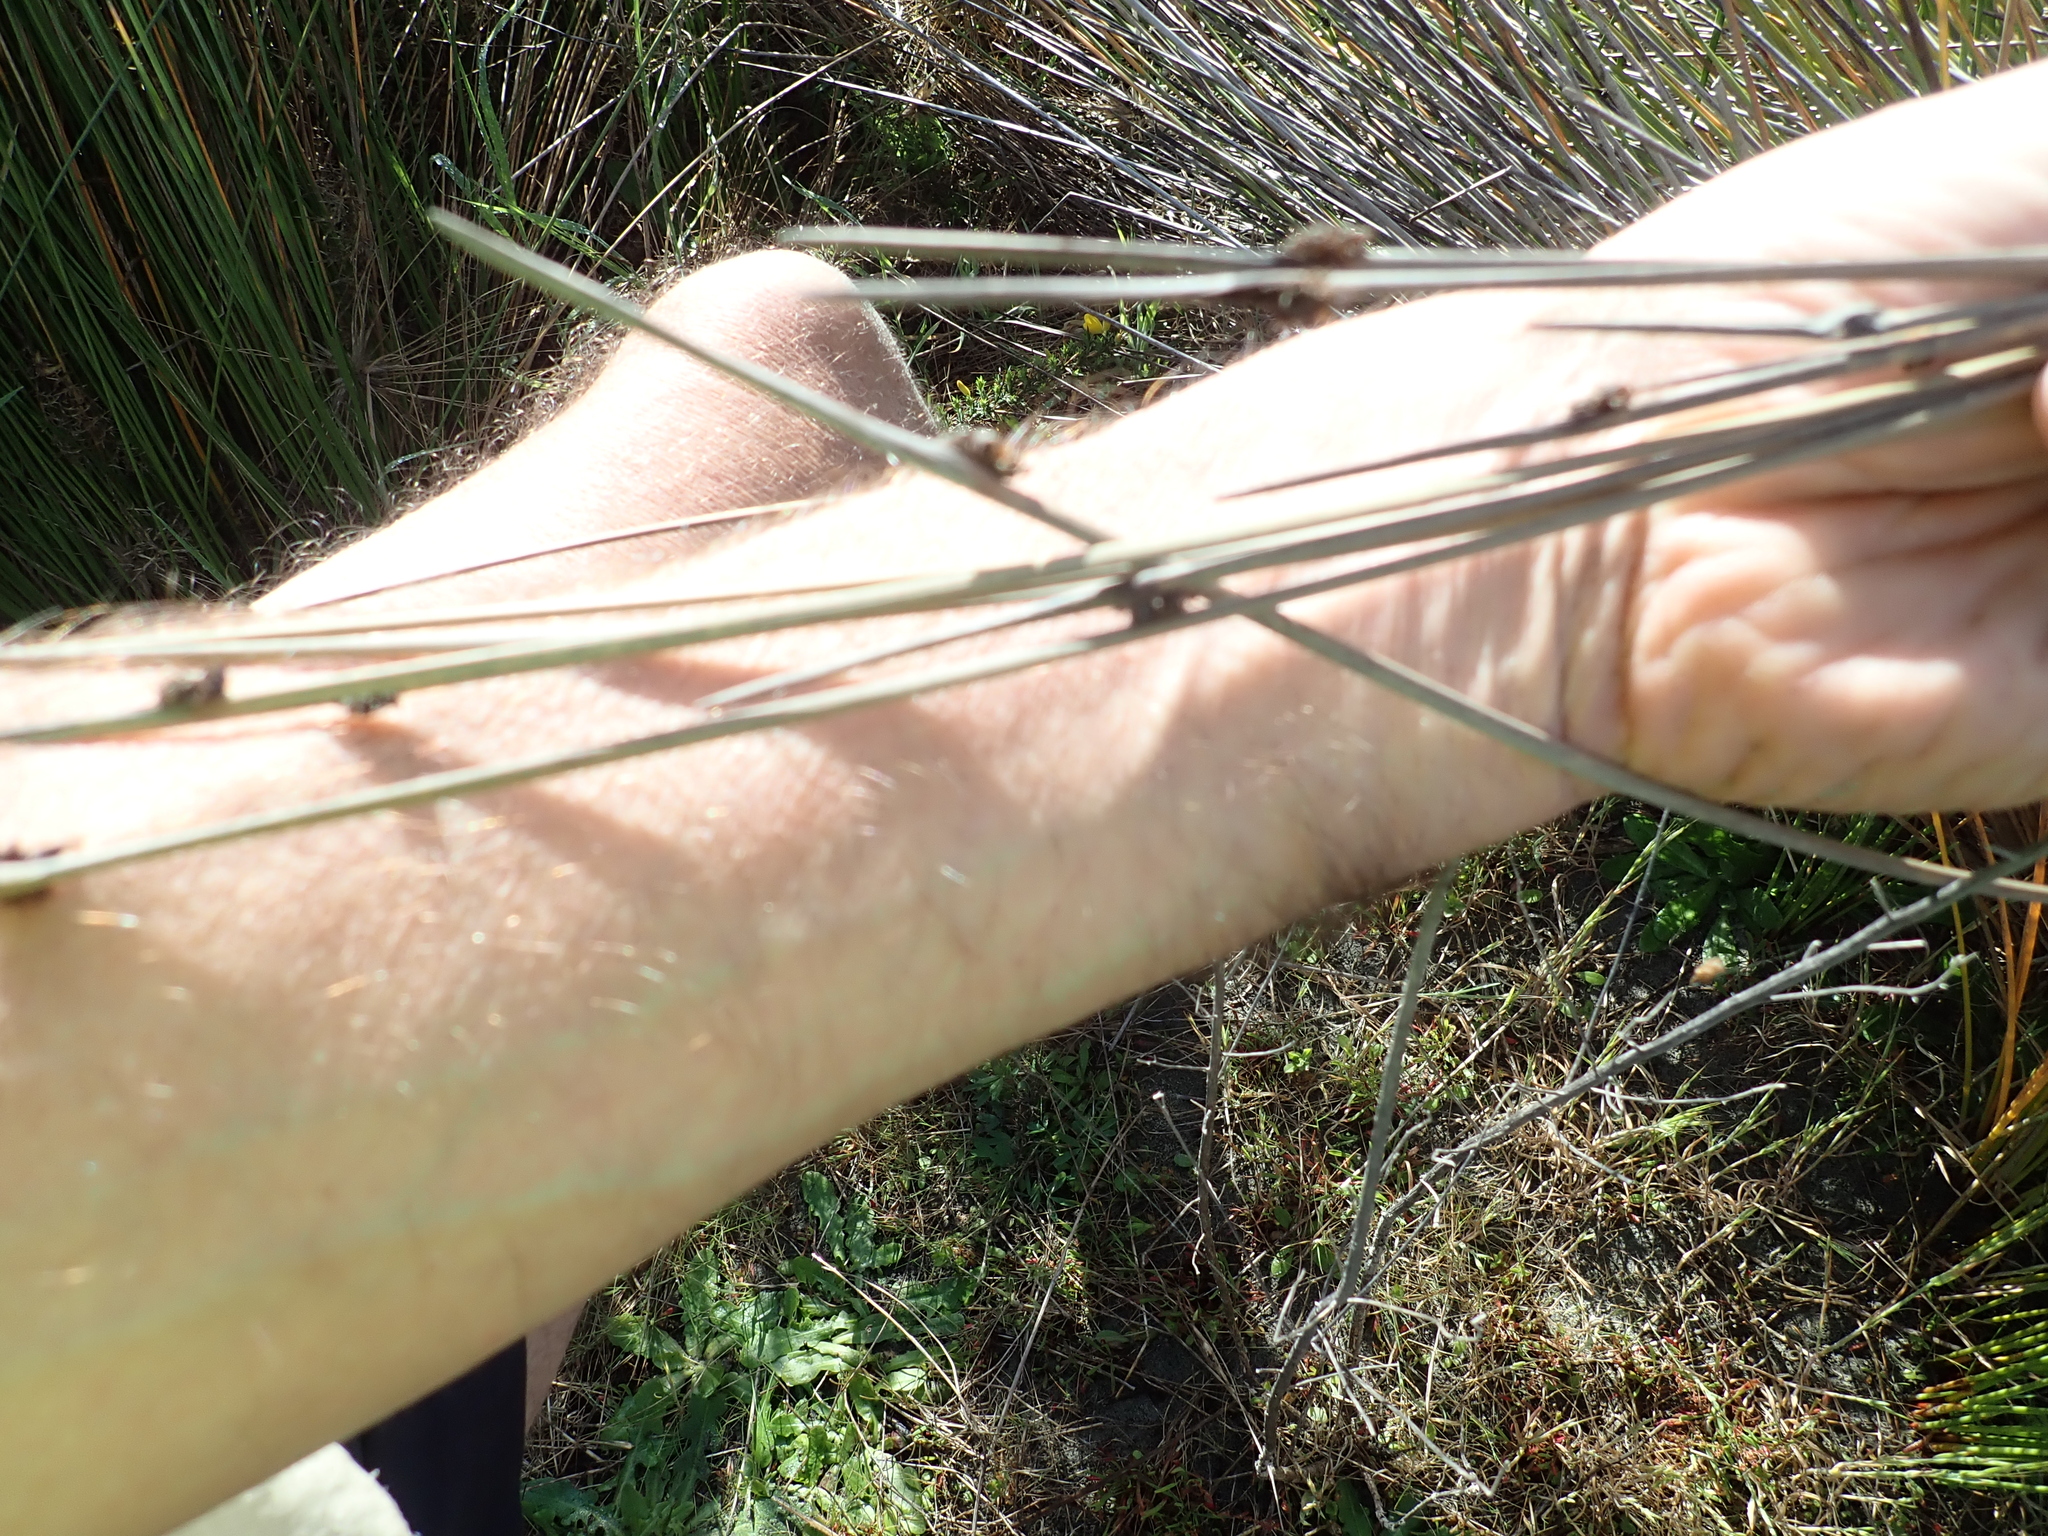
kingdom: Plantae
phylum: Tracheophyta
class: Liliopsida
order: Poales
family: Cyperaceae
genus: Ficinia
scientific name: Ficinia nodosa
